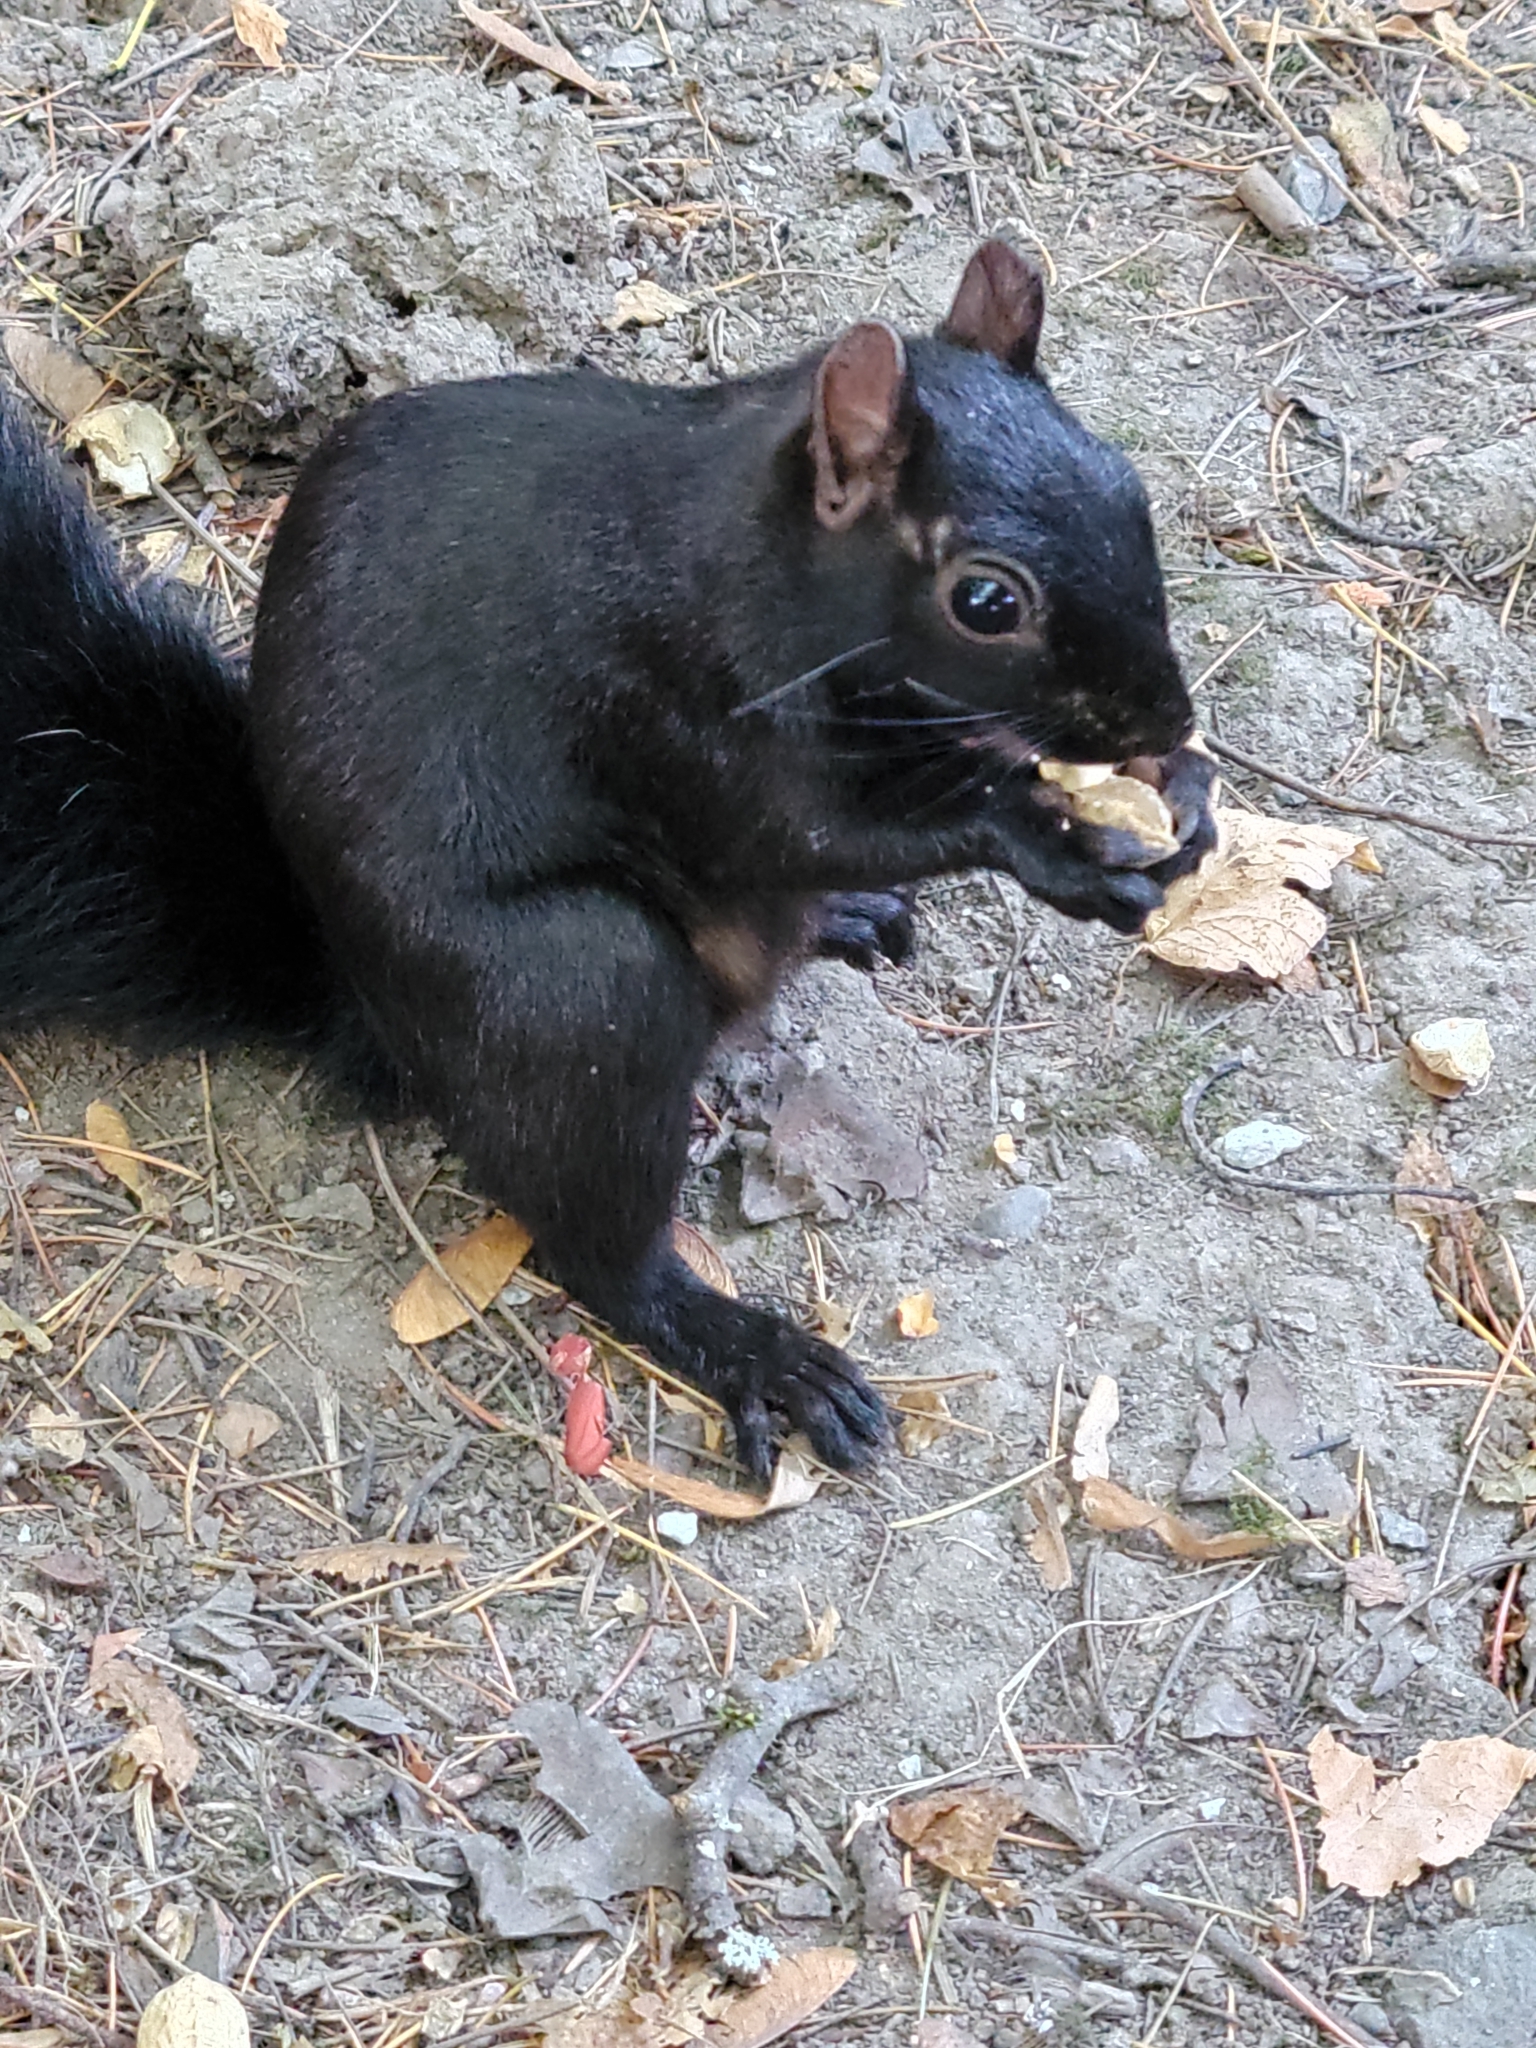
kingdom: Animalia
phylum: Chordata
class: Mammalia
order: Rodentia
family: Sciuridae
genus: Sciurus
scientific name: Sciurus carolinensis
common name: Eastern gray squirrel
